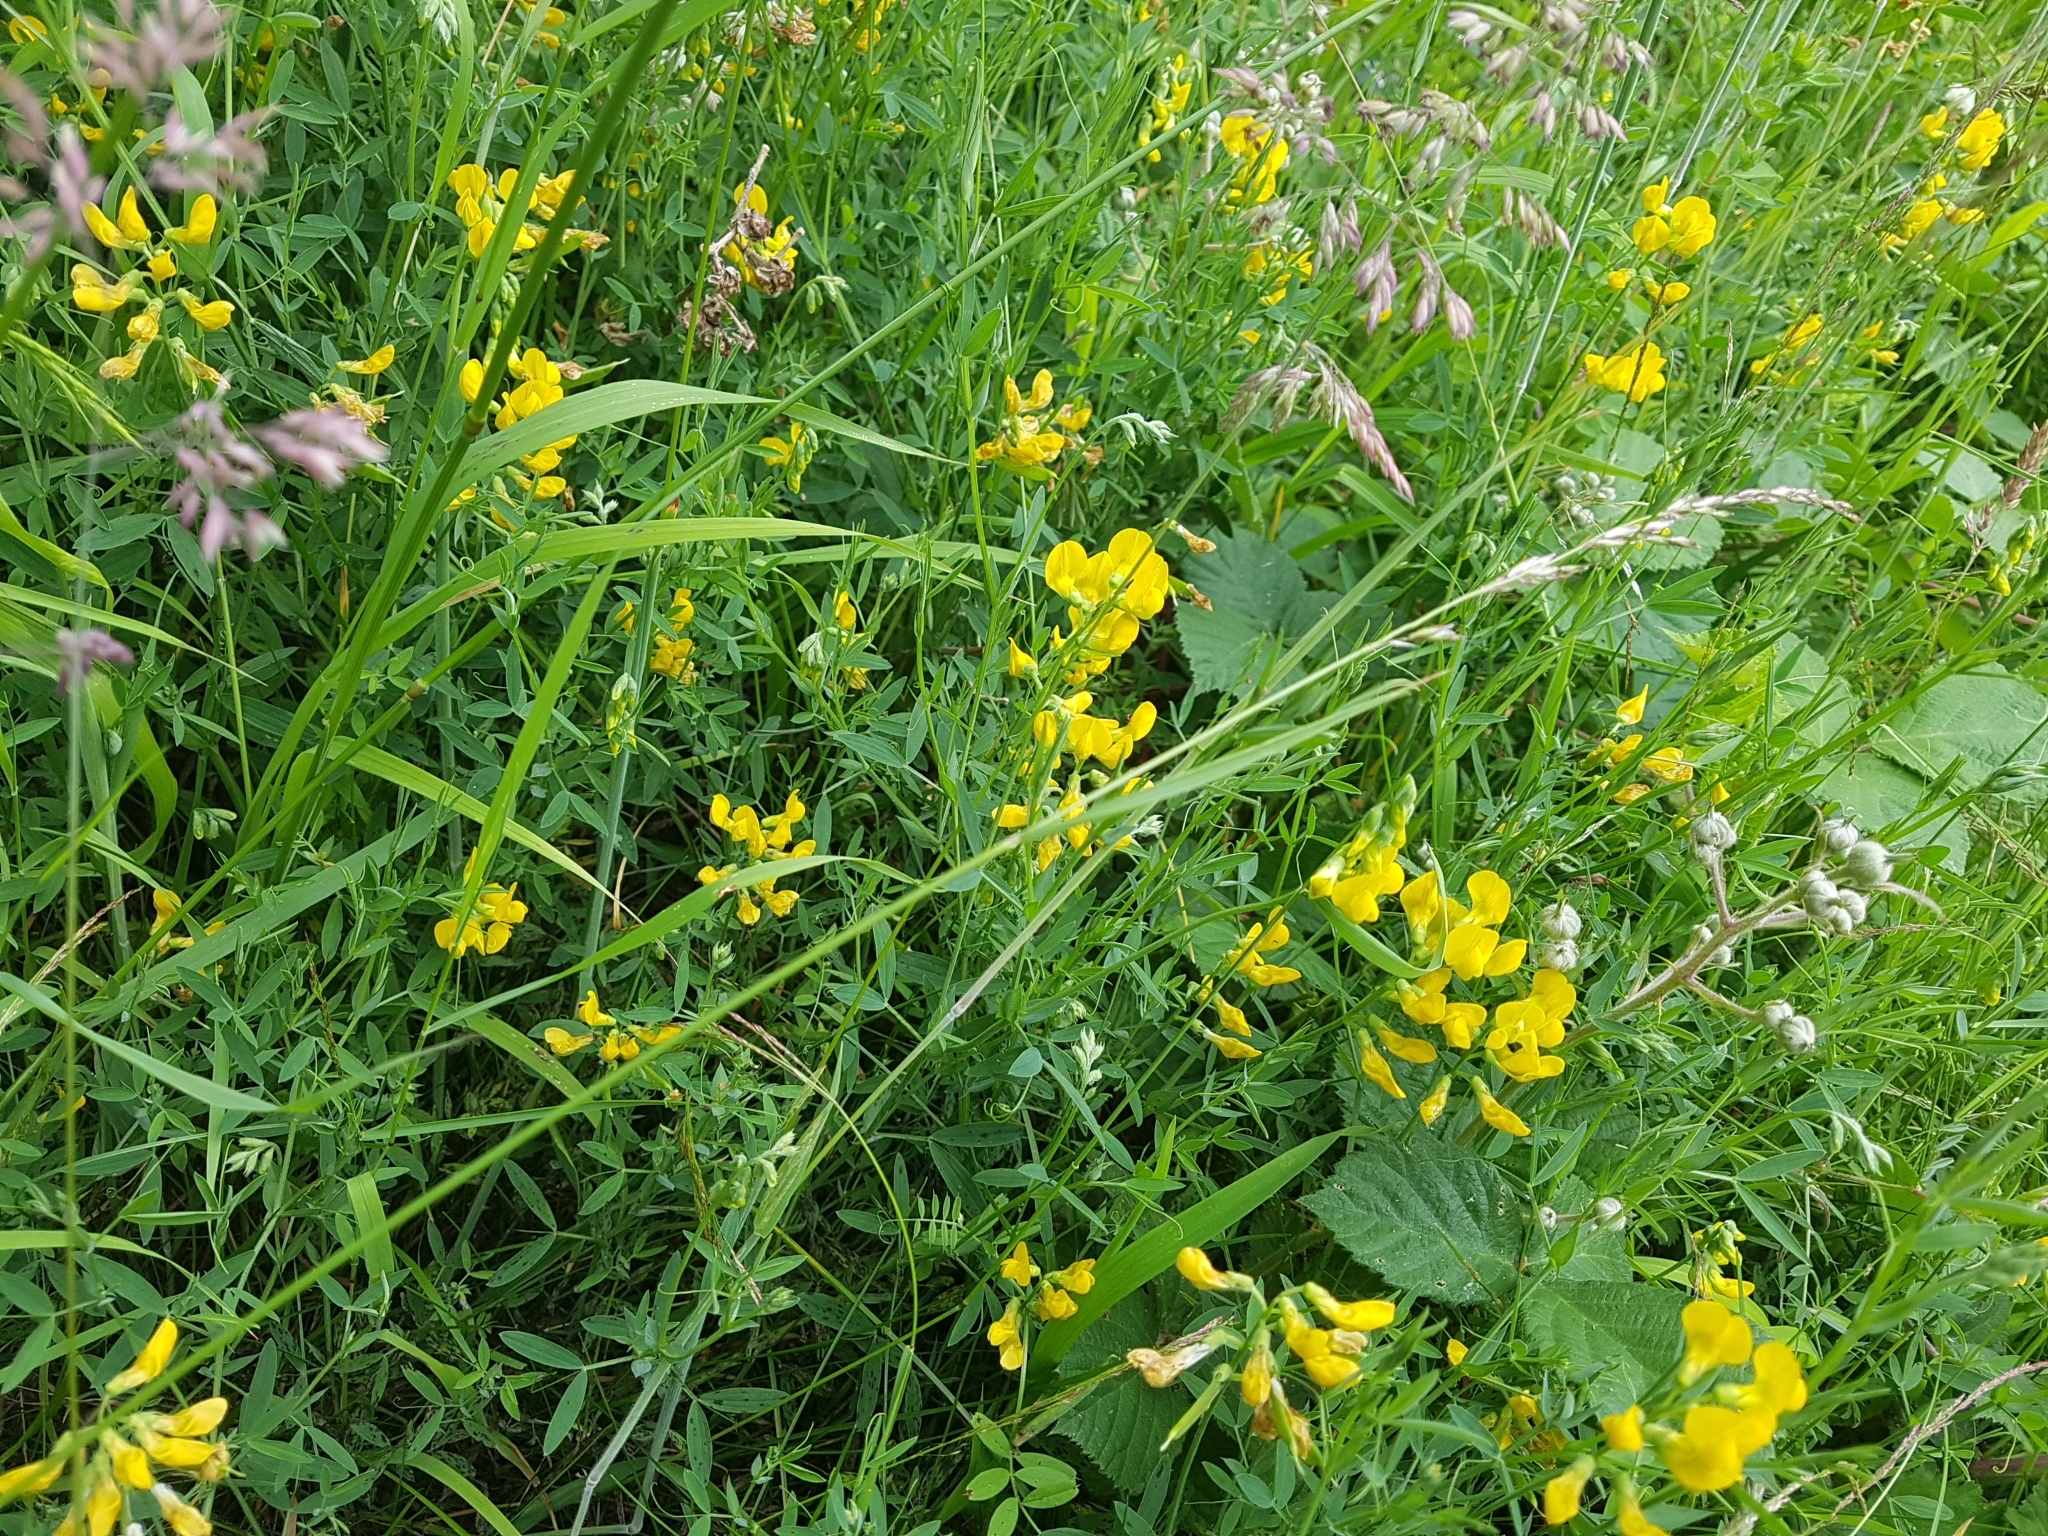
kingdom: Plantae
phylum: Tracheophyta
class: Magnoliopsida
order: Fabales
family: Fabaceae
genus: Lathyrus
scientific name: Lathyrus pratensis
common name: Meadow vetchling
